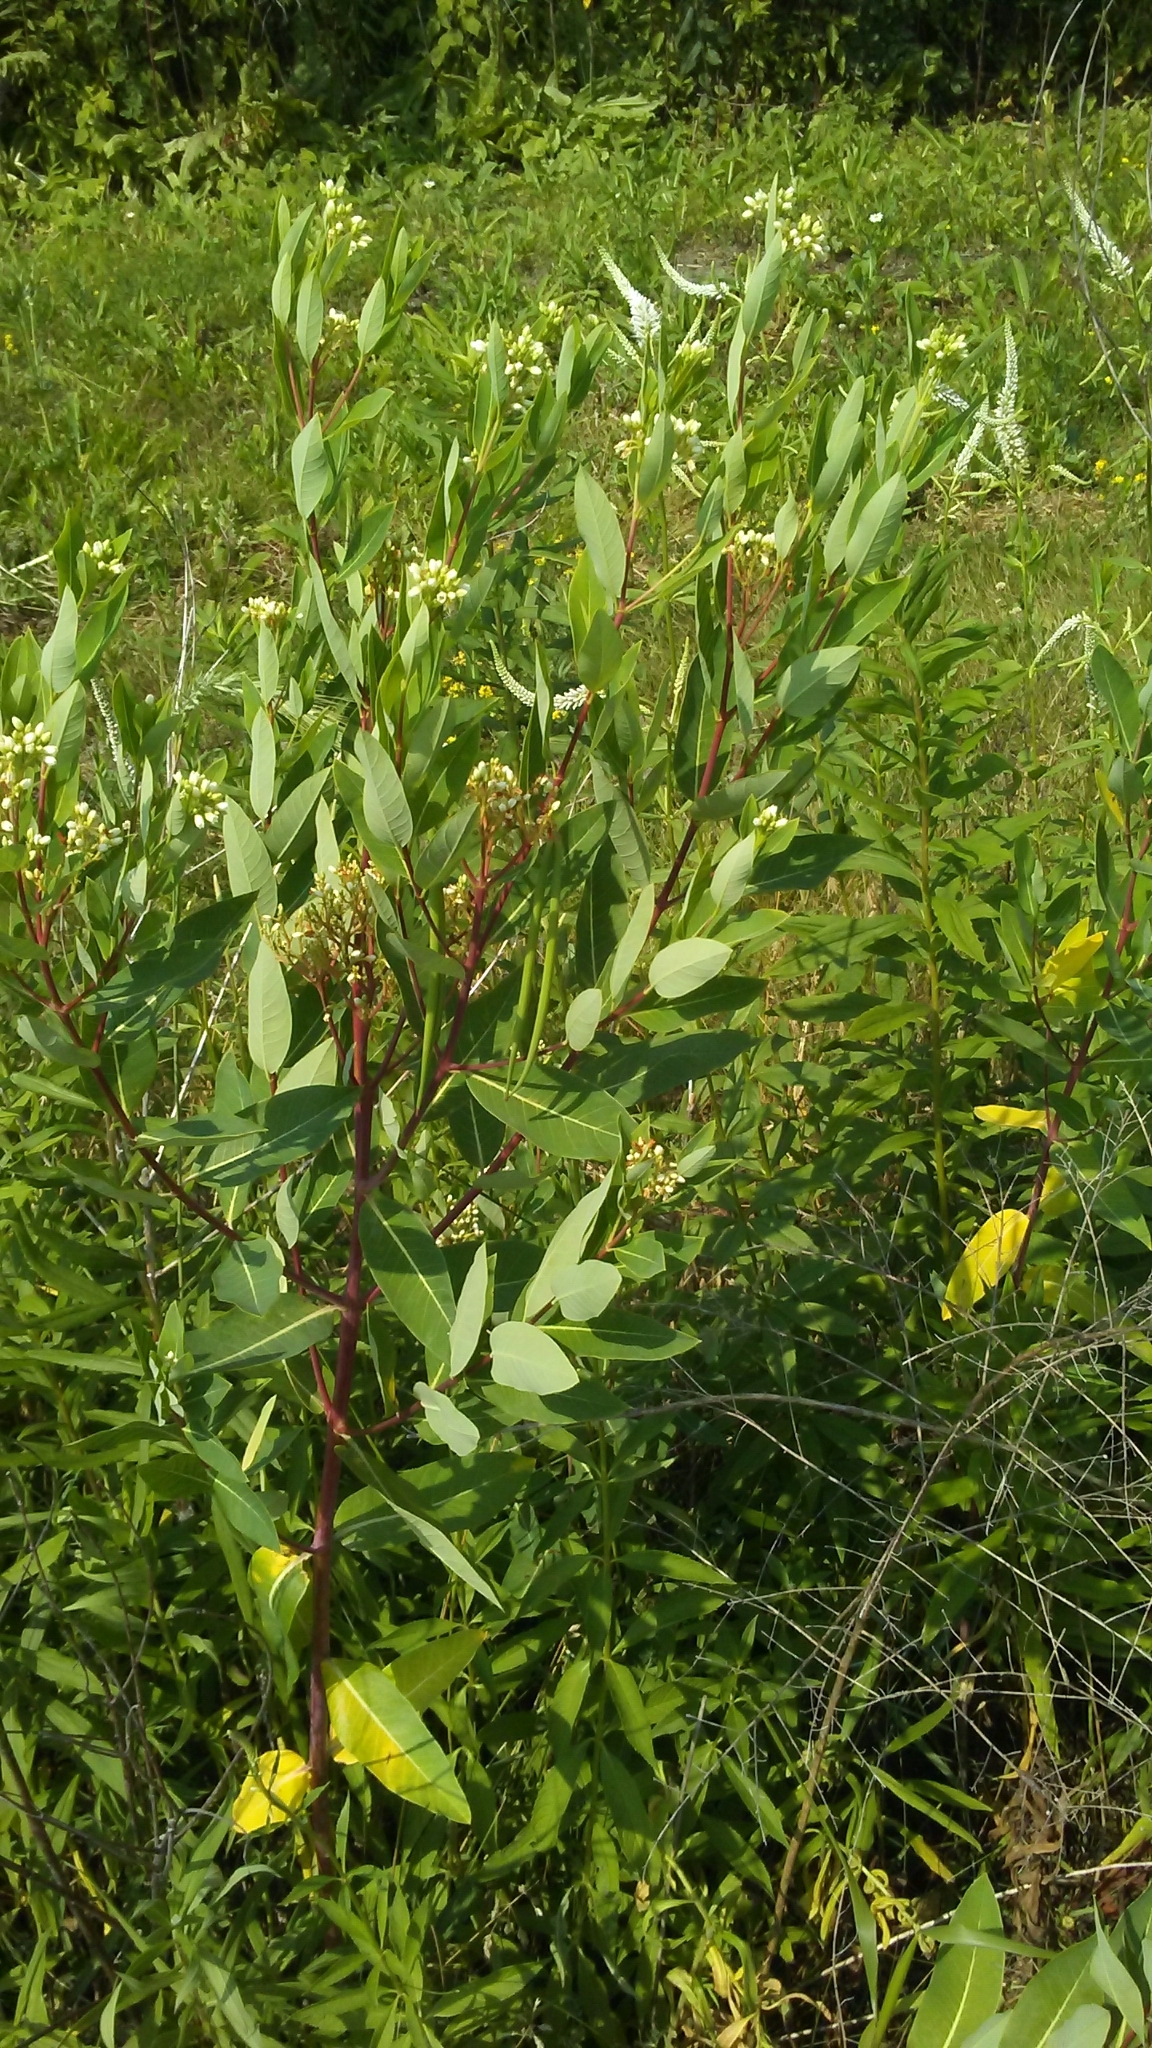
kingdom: Plantae
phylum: Tracheophyta
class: Magnoliopsida
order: Gentianales
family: Apocynaceae
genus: Apocynum
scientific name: Apocynum cannabinum
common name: Hemp dogbane
